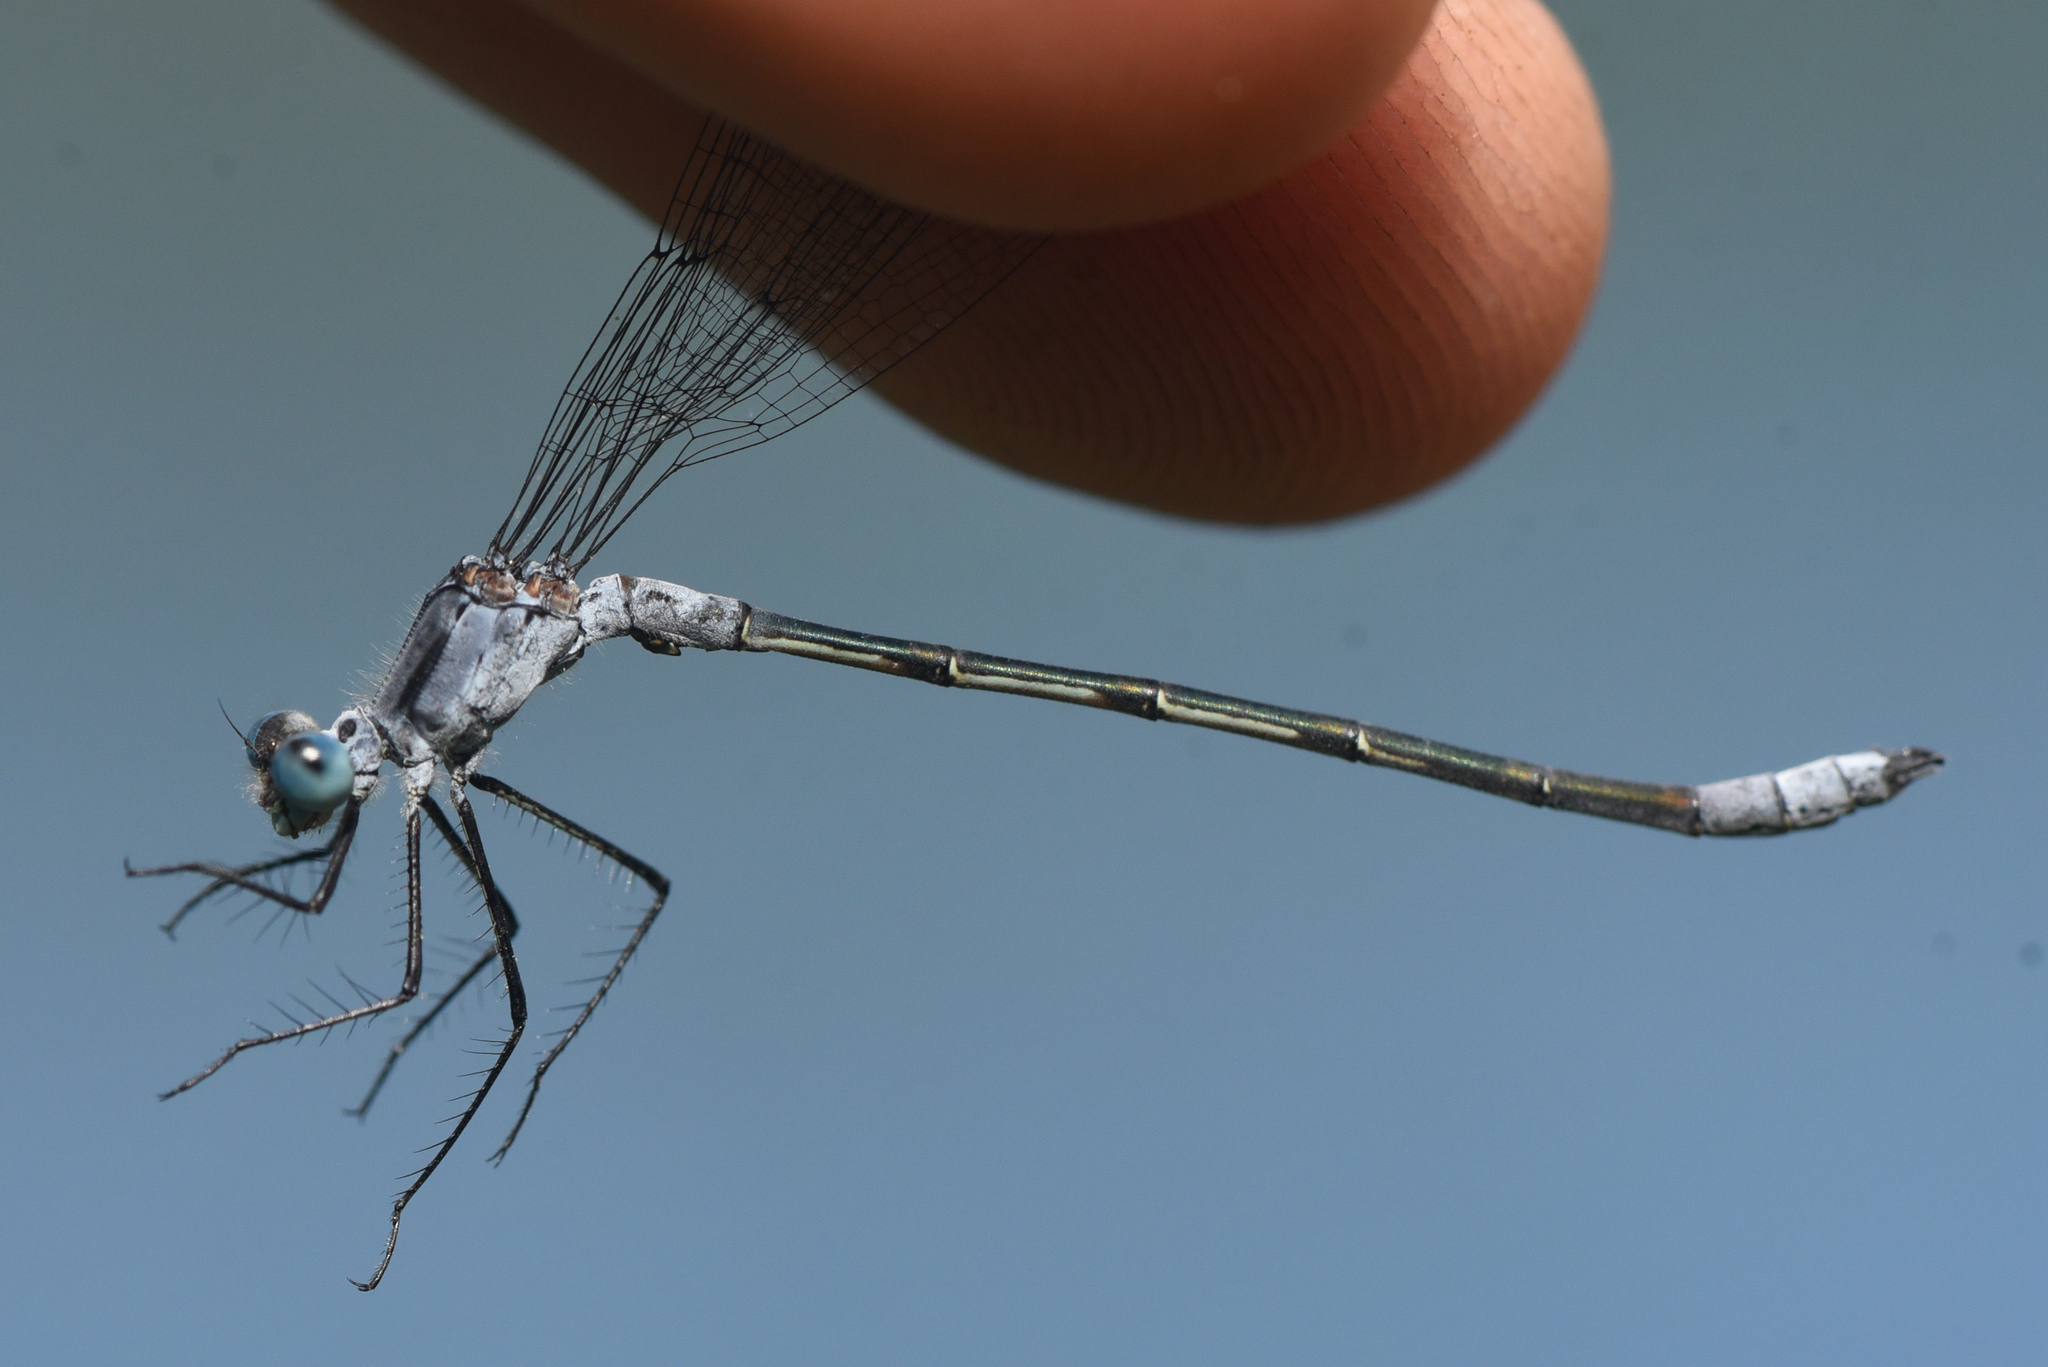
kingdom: Animalia
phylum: Arthropoda
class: Insecta
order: Odonata
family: Lestidae
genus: Lestes
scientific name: Lestes disjunctus
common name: Northern spreadwing
